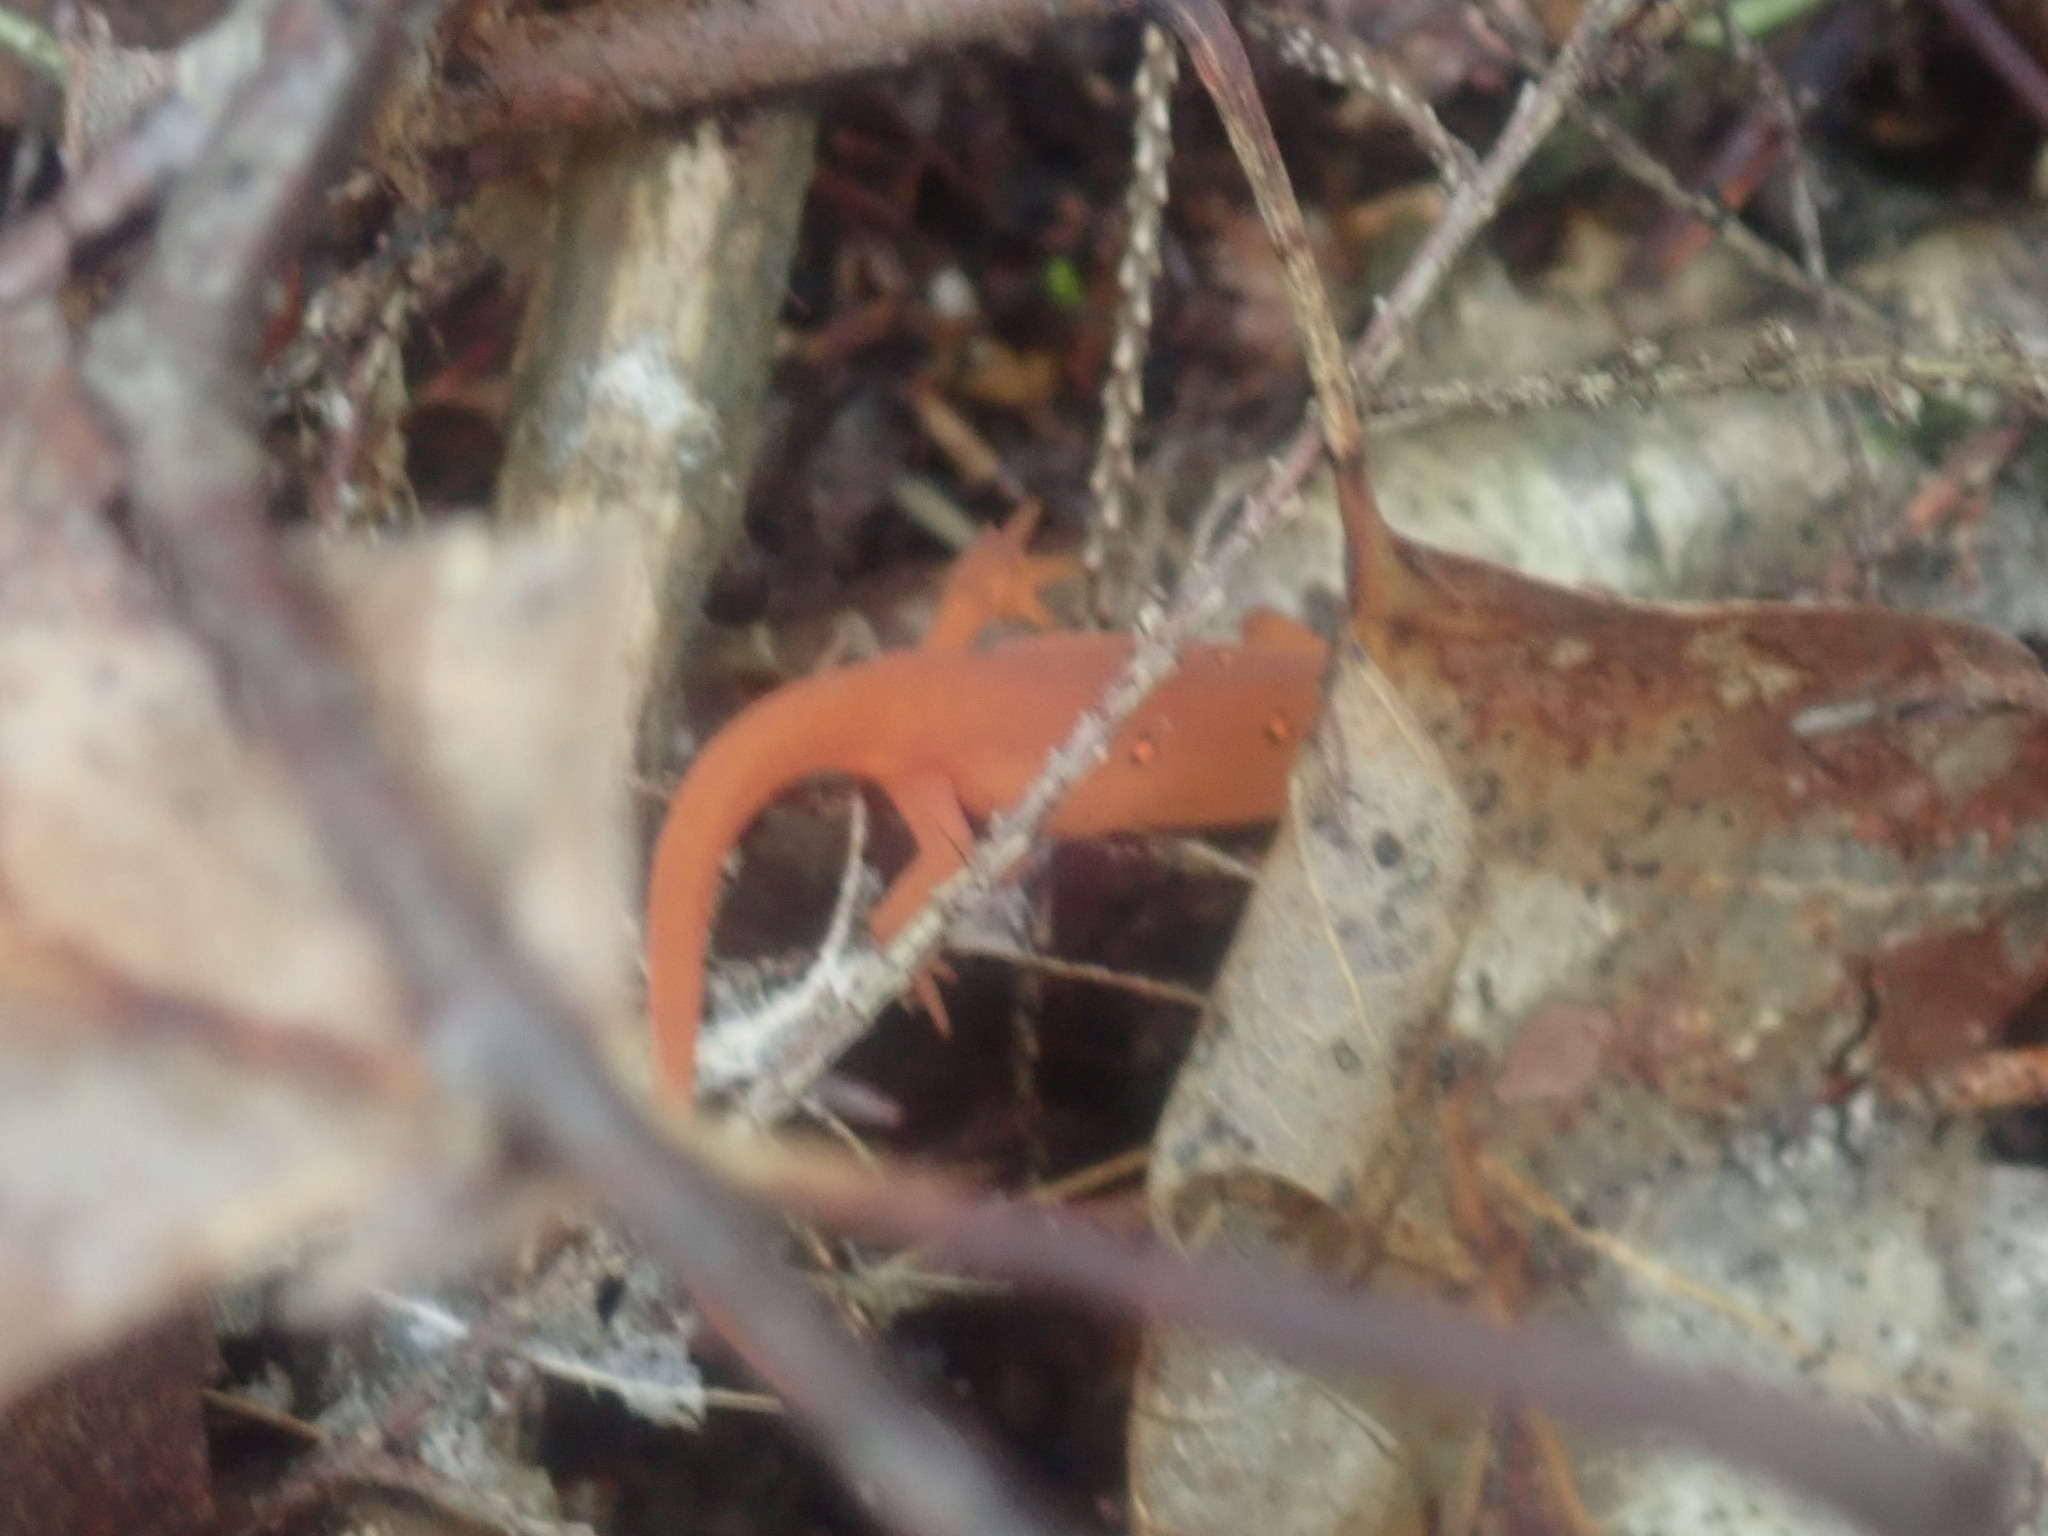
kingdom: Animalia
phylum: Chordata
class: Amphibia
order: Caudata
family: Salamandridae
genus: Notophthalmus
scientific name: Notophthalmus viridescens
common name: Eastern newt
